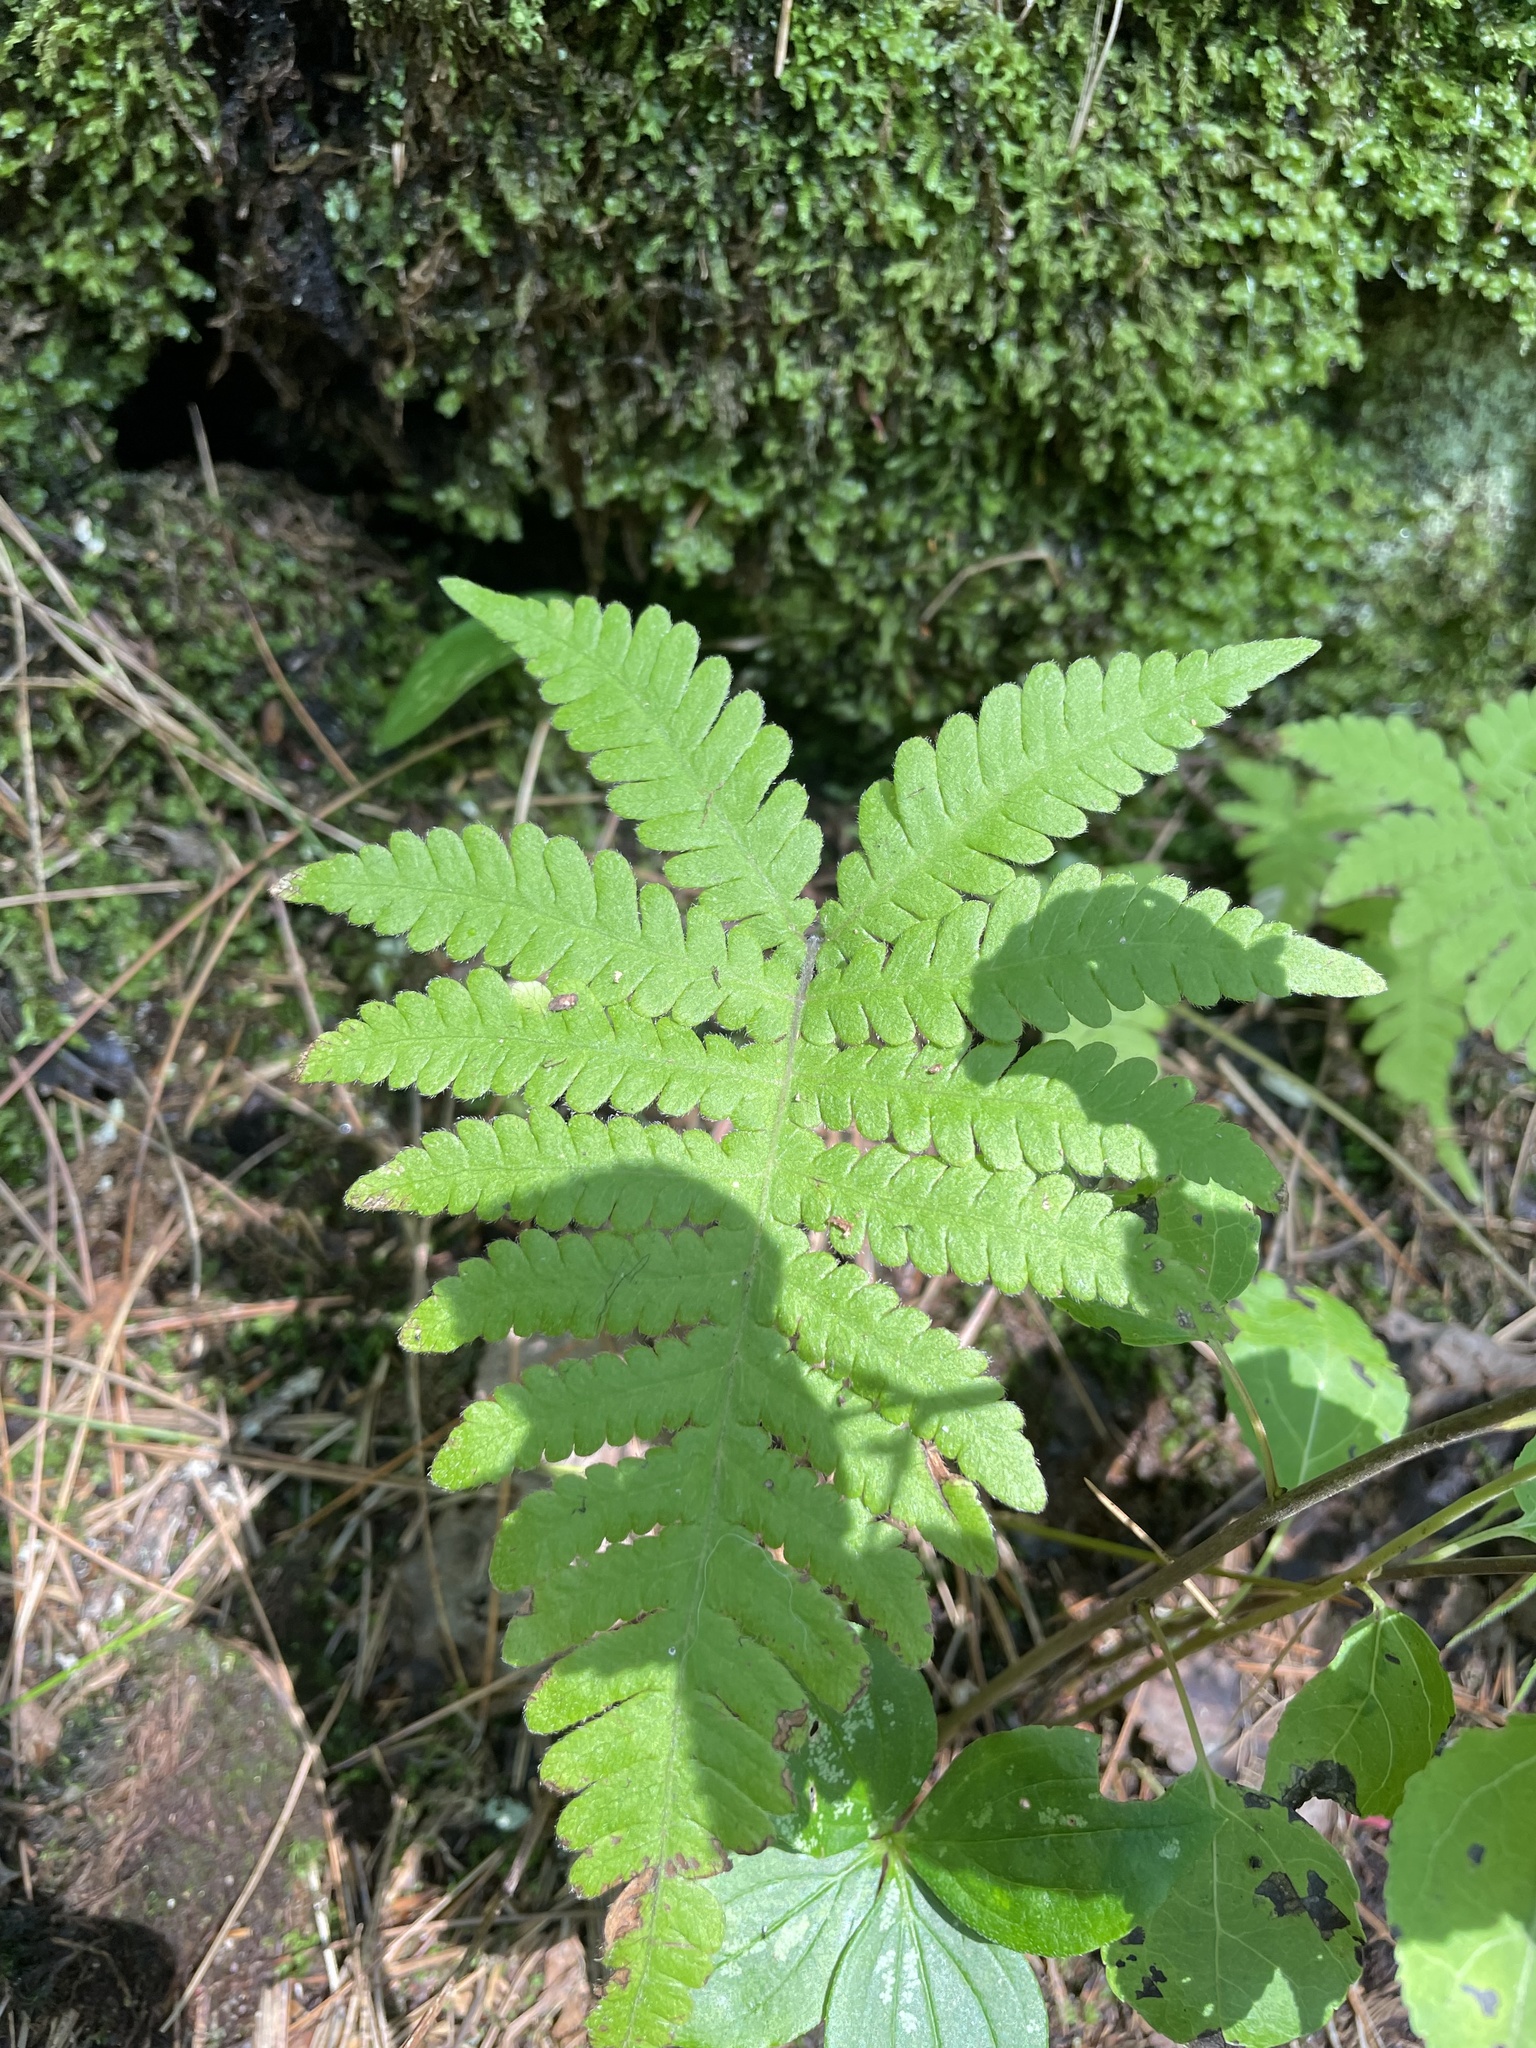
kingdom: Plantae
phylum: Tracheophyta
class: Polypodiopsida
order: Polypodiales
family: Cystopteridaceae
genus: Gymnocarpium
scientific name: Gymnocarpium dryopteris
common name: Oak fern
